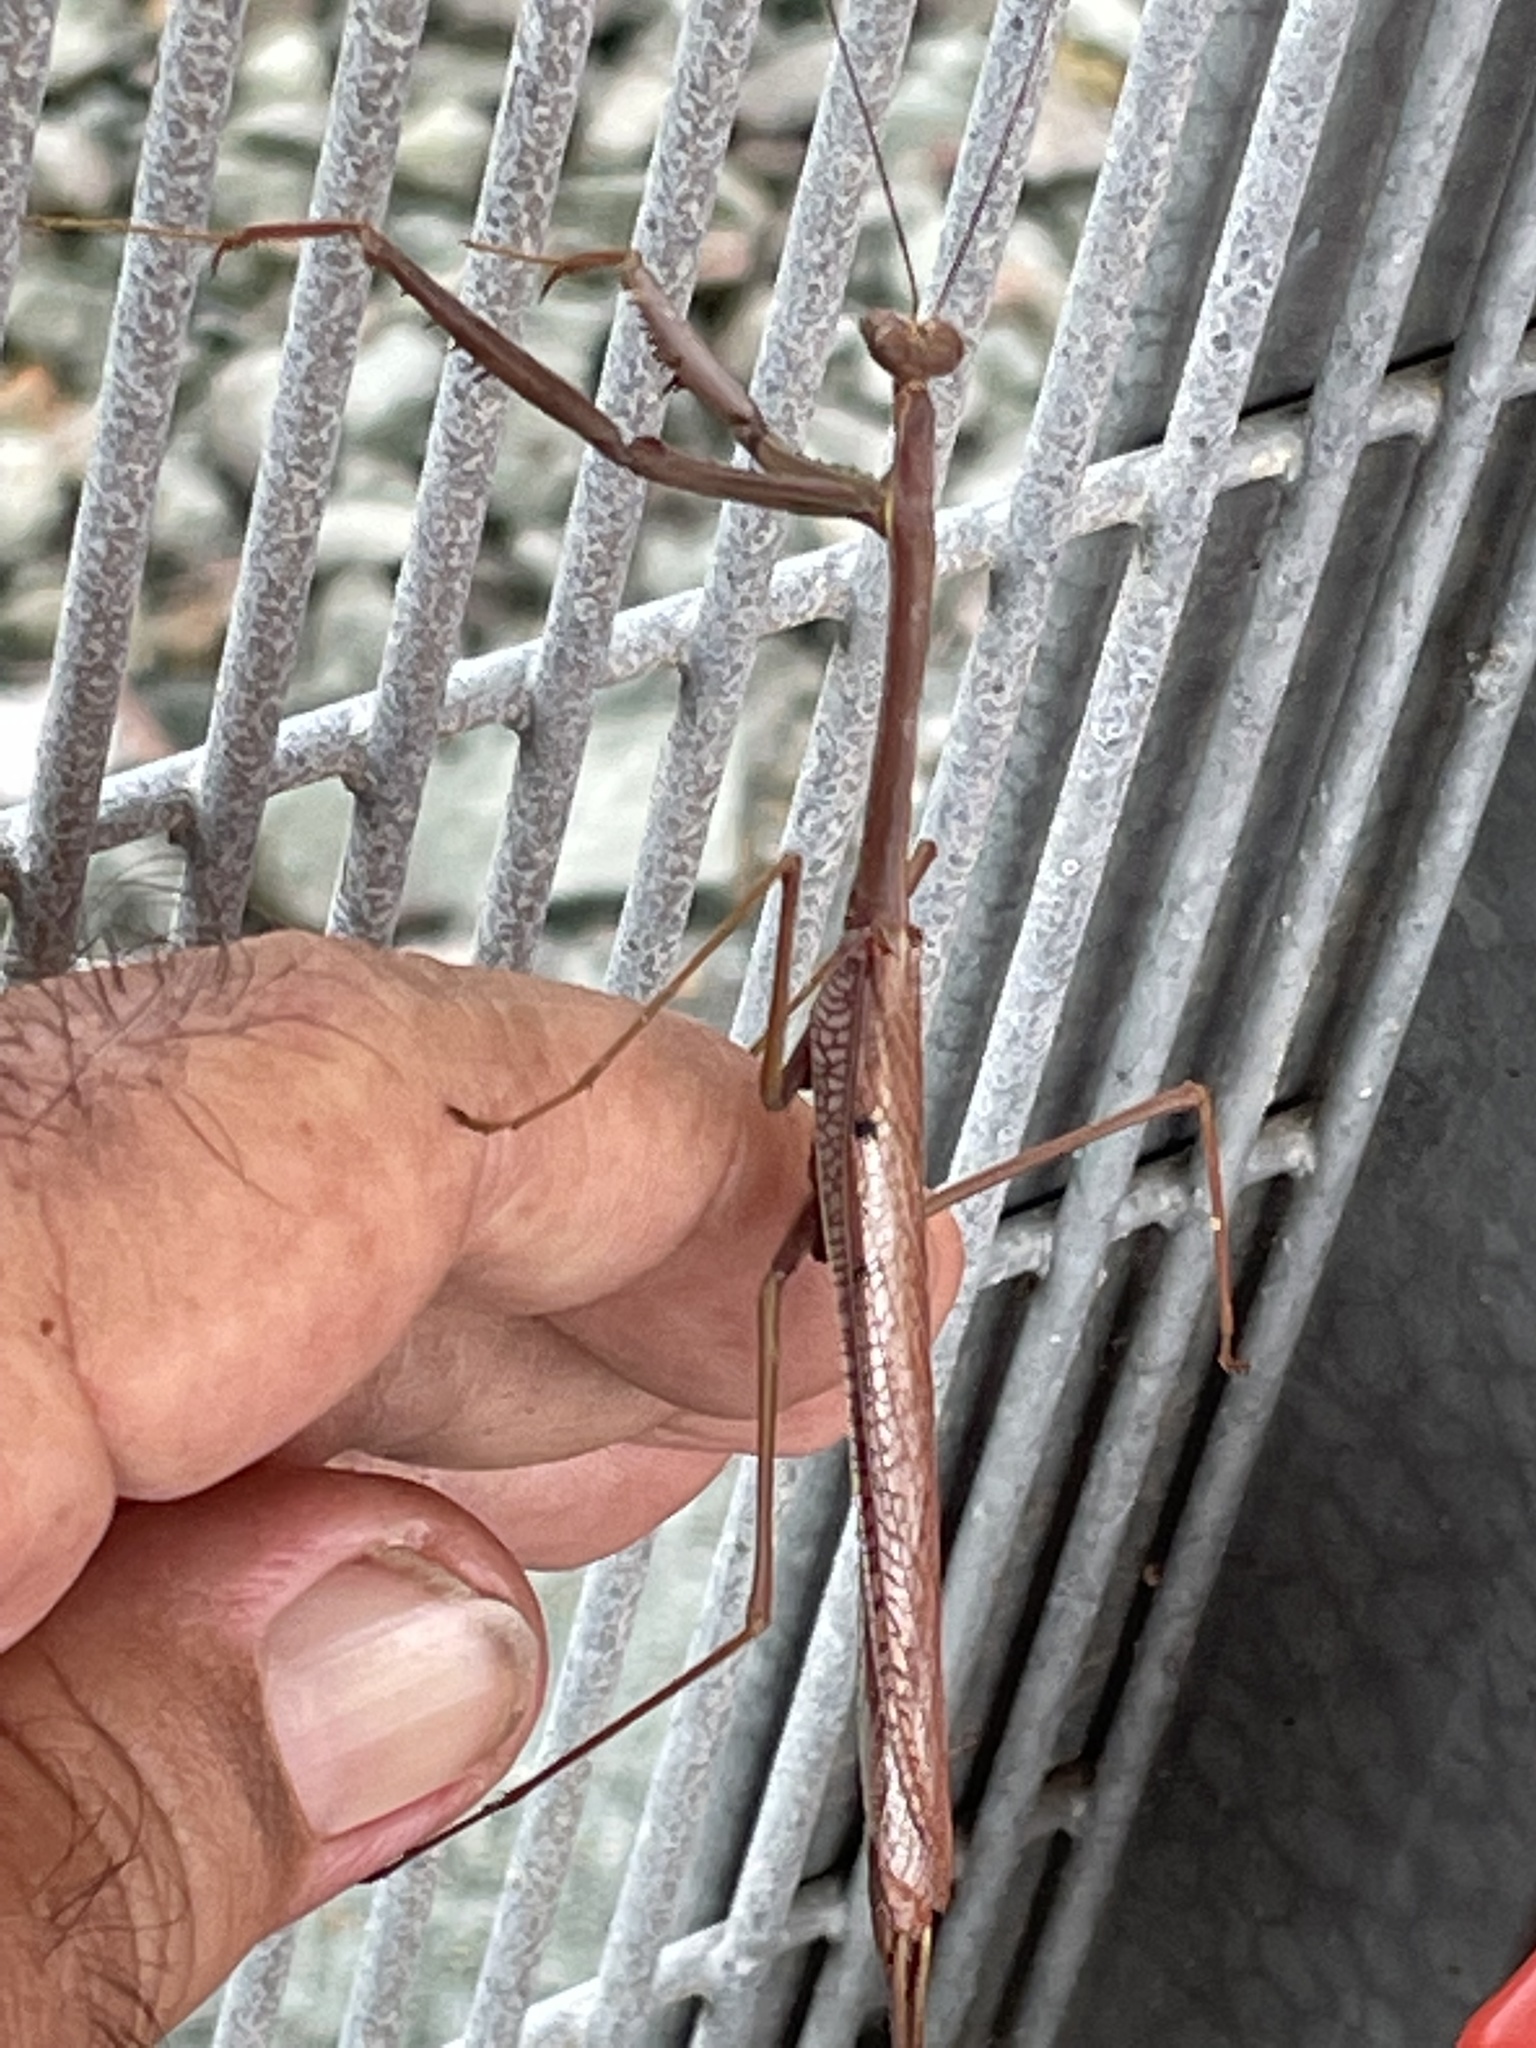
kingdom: Animalia
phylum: Arthropoda
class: Insecta
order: Mantodea
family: Mantidae
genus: Archimantis
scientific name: Archimantis latistyla
